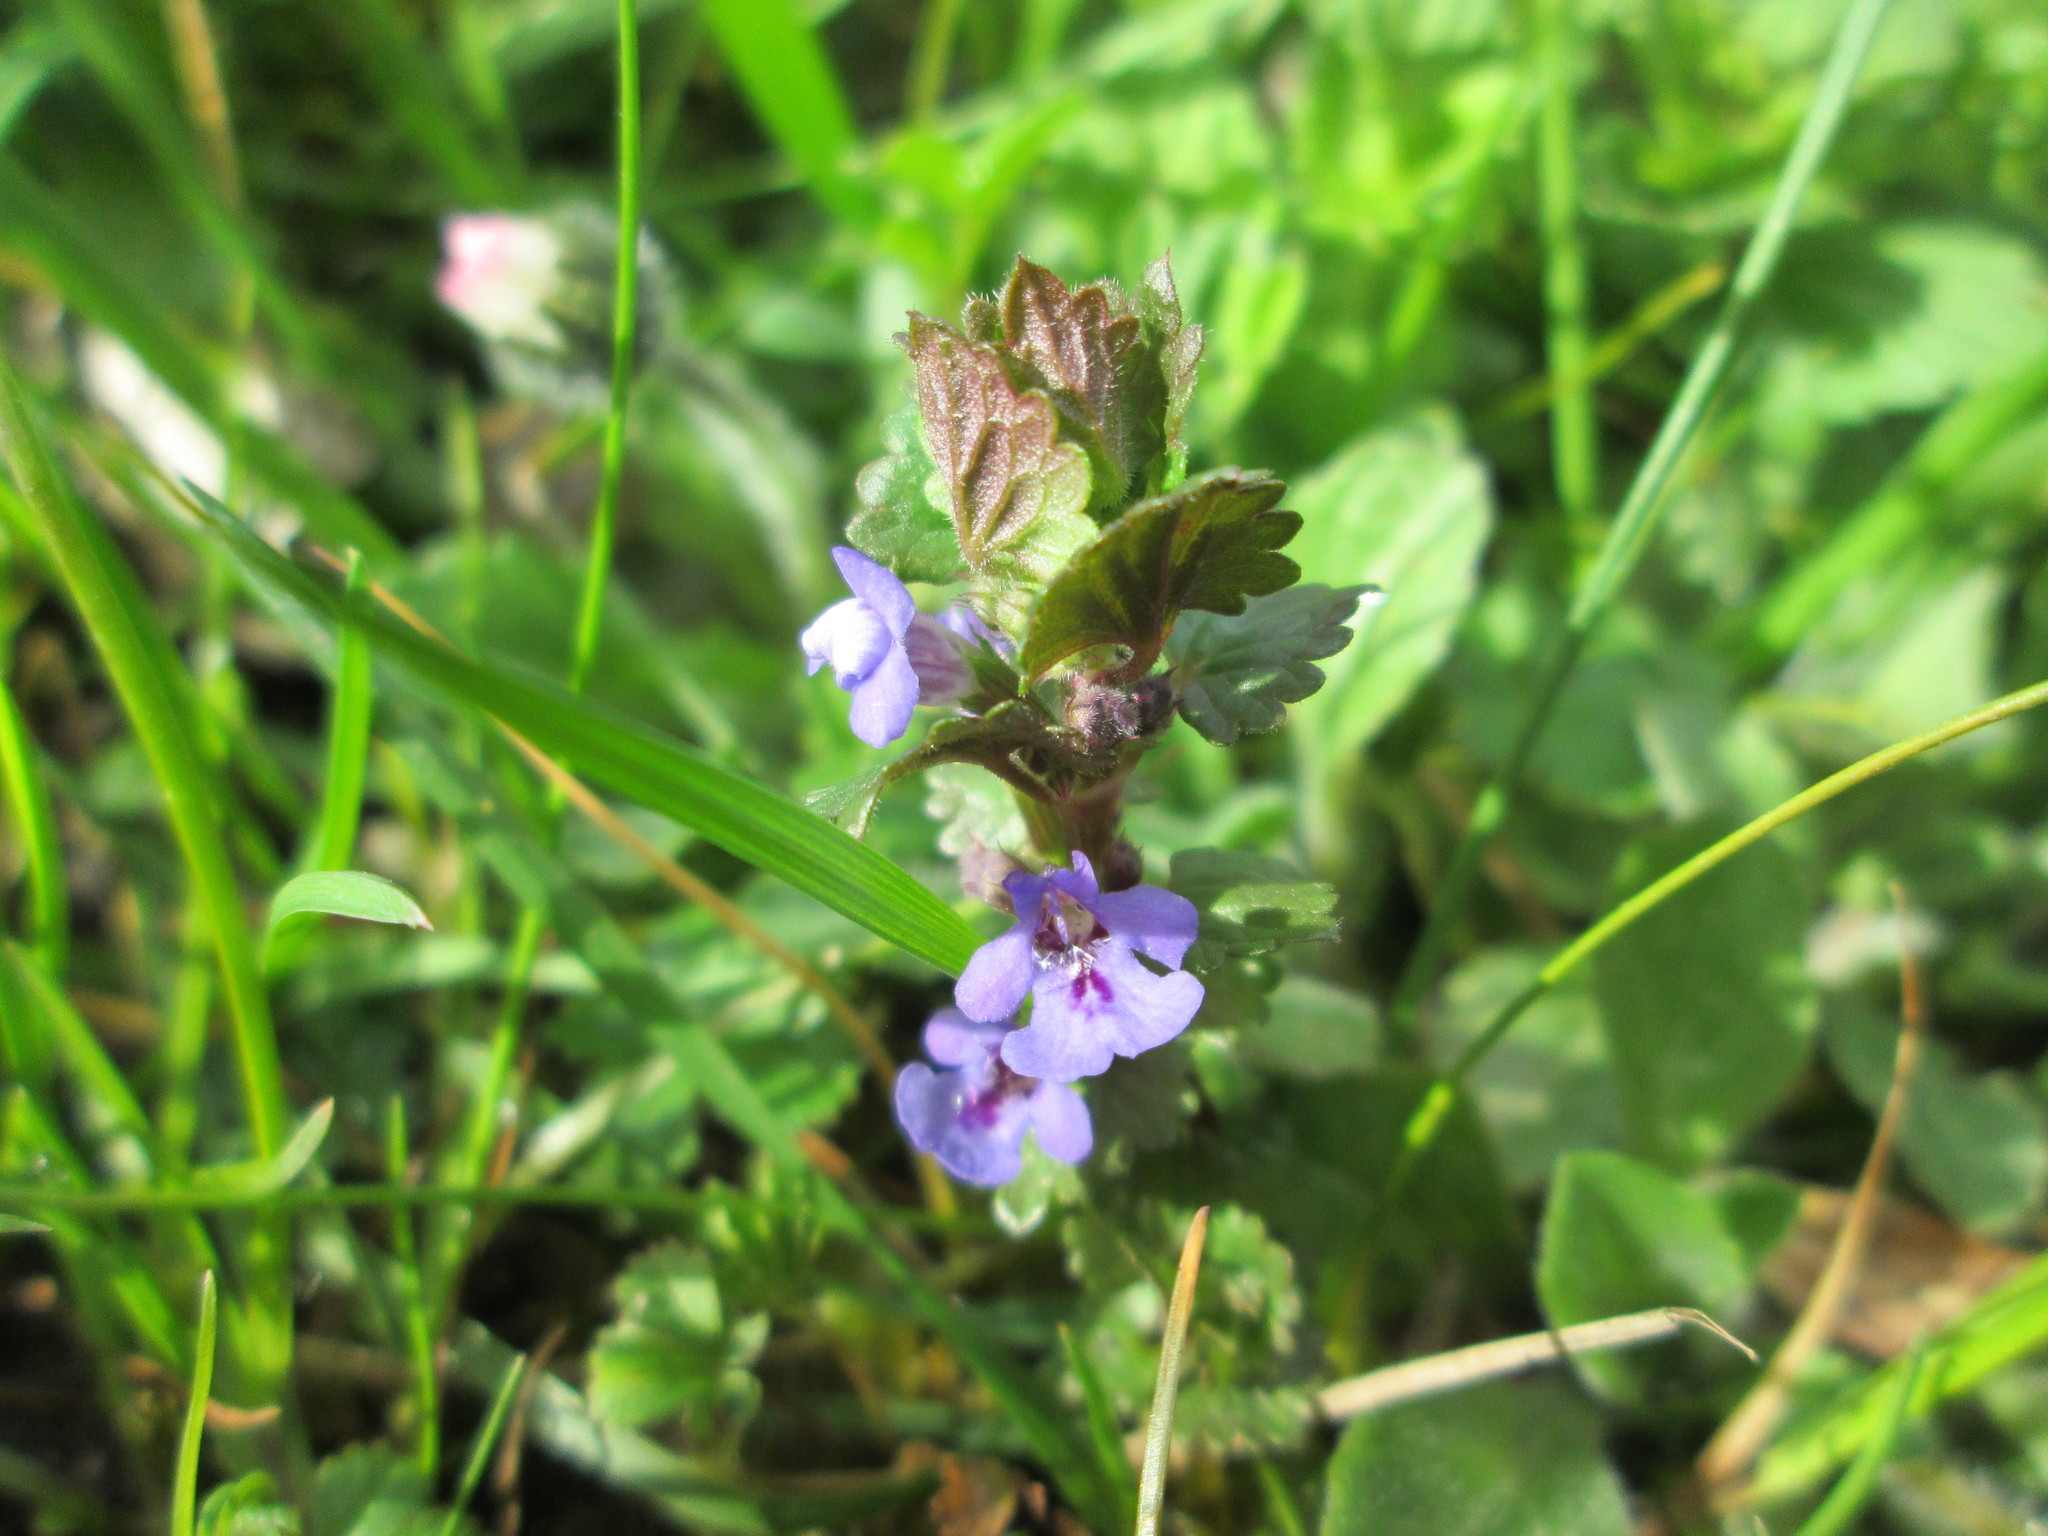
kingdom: Plantae
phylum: Tracheophyta
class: Magnoliopsida
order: Lamiales
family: Lamiaceae
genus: Glechoma
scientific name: Glechoma hederacea
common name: Ground ivy
